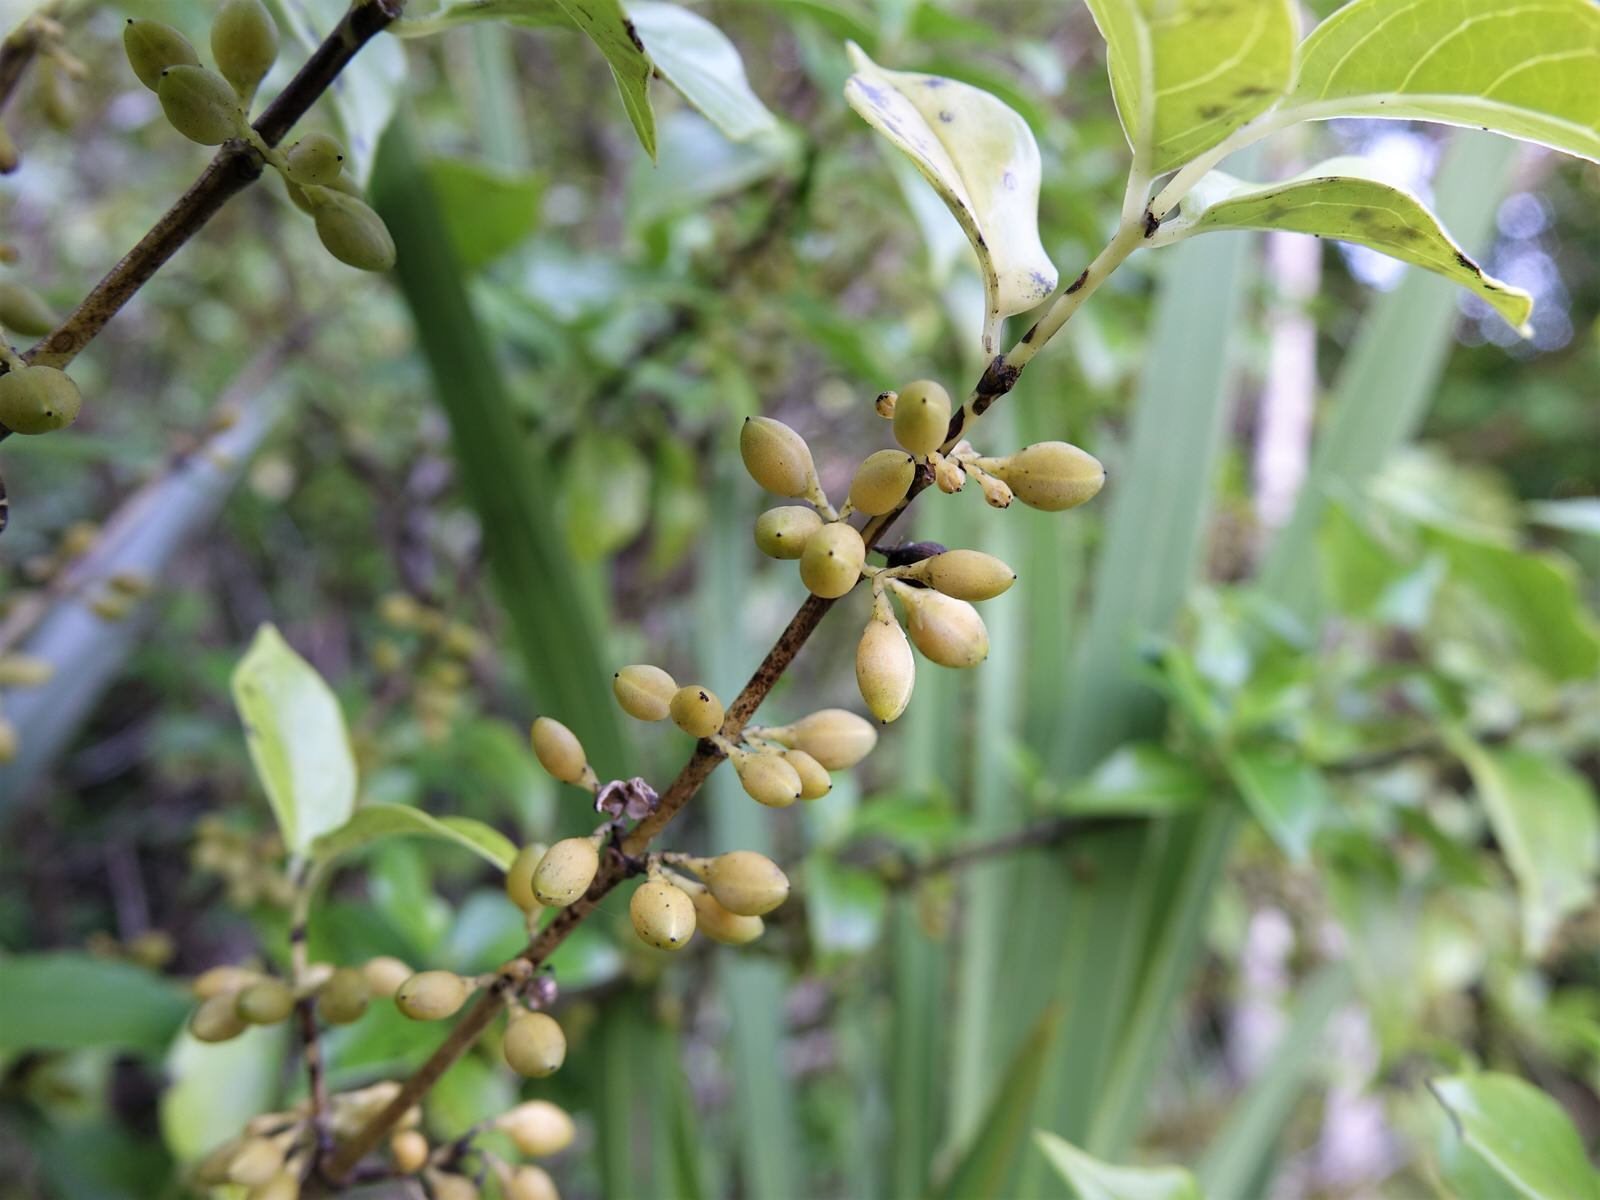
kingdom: Plantae
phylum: Tracheophyta
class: Magnoliopsida
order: Gentianales
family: Loganiaceae
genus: Geniostoma
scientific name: Geniostoma ligustrifolium
